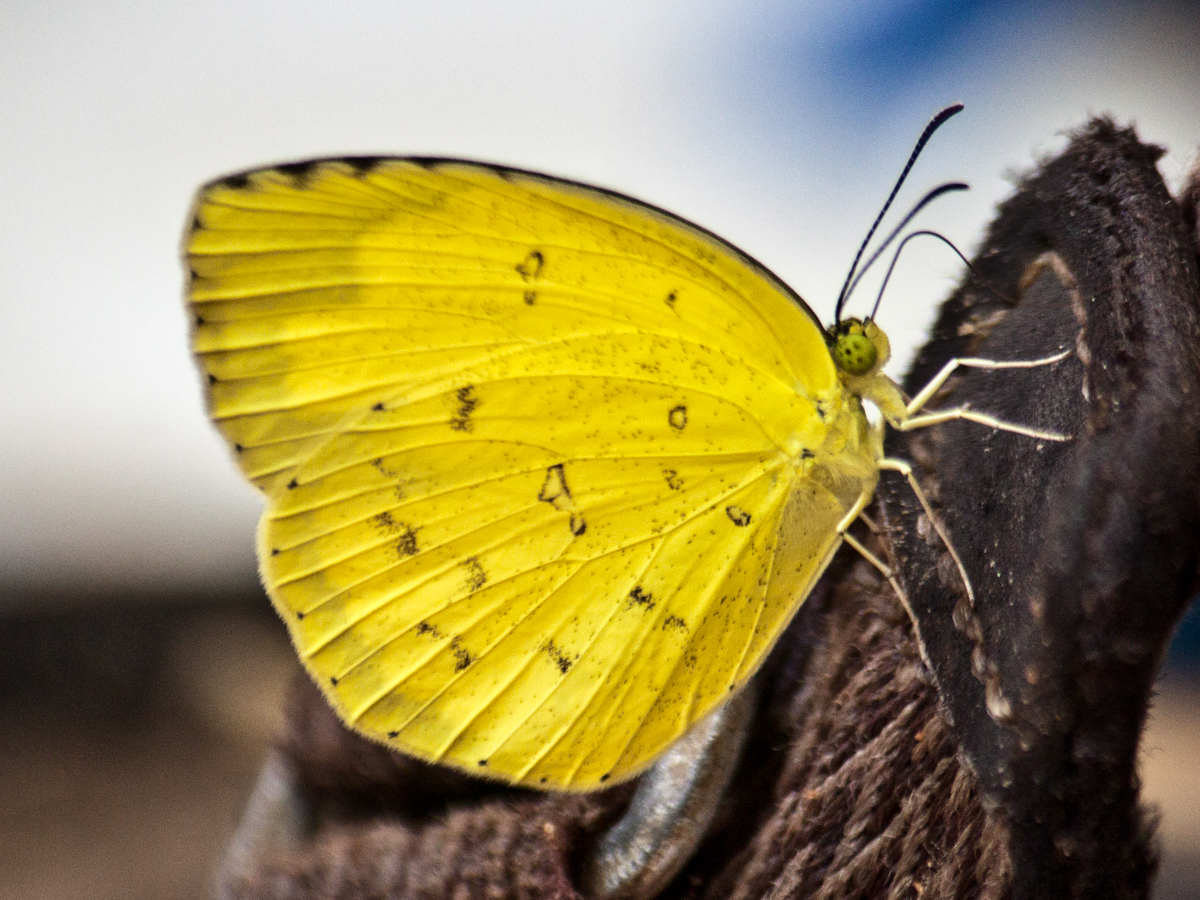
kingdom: Animalia
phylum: Arthropoda
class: Insecta
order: Lepidoptera
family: Pieridae
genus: Eurema
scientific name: Eurema hecabe
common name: Pale grass yellow
